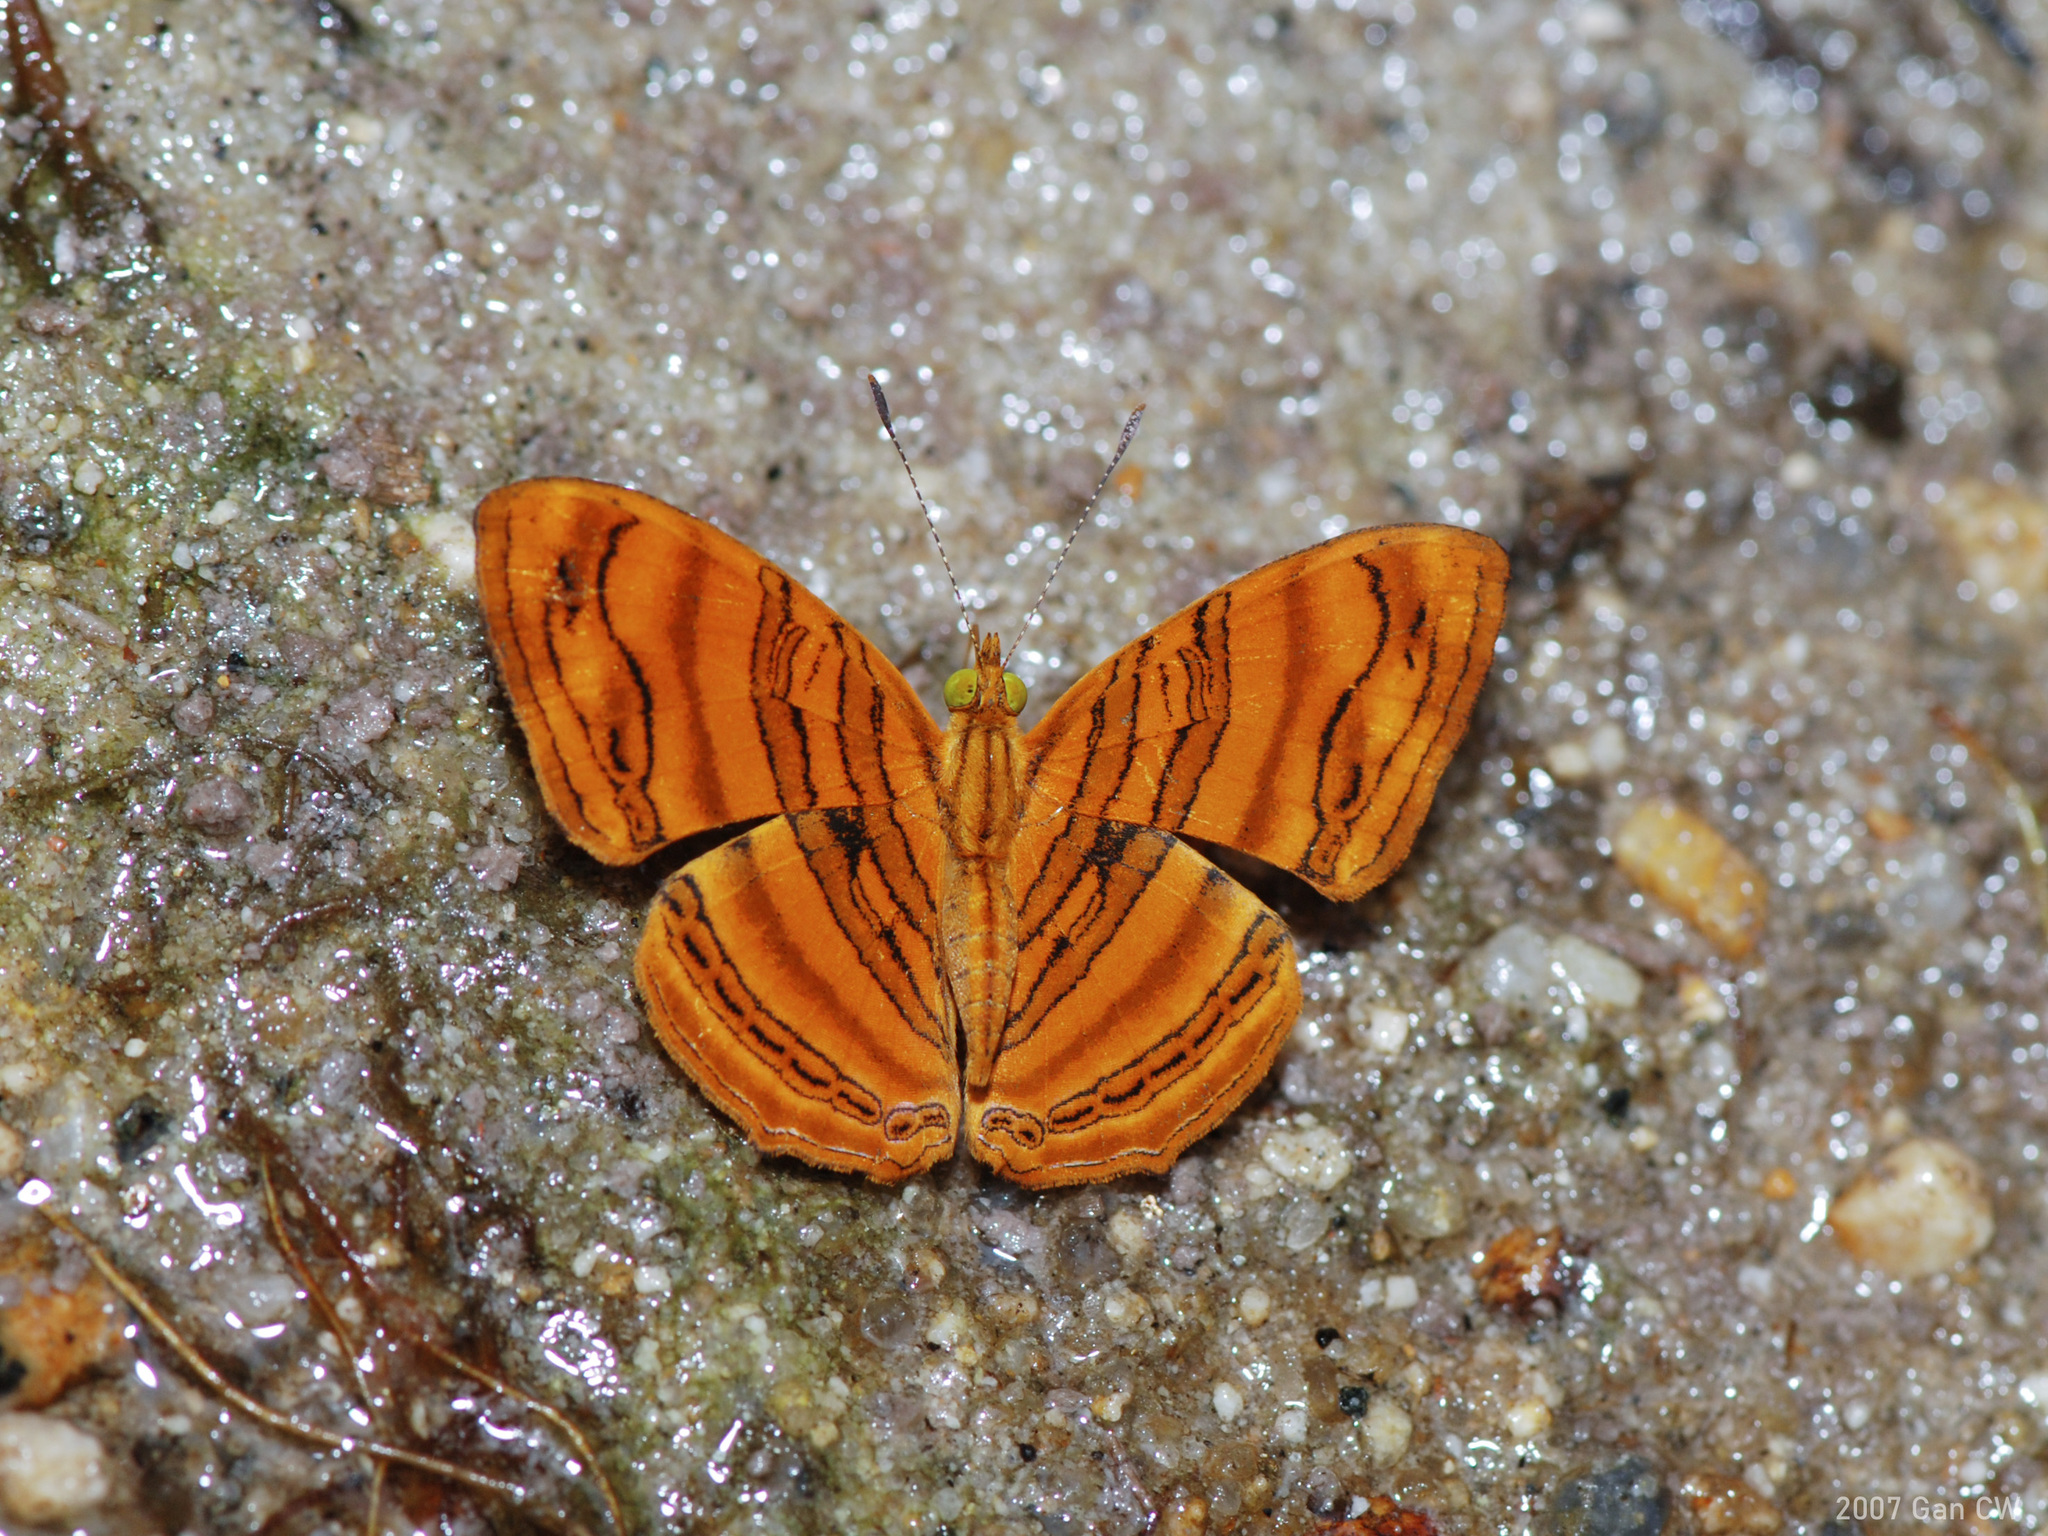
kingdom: Animalia
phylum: Arthropoda
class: Insecta
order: Lepidoptera
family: Nymphalidae
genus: Chersonesia
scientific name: Chersonesia intermedia
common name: Intermediate maplet
